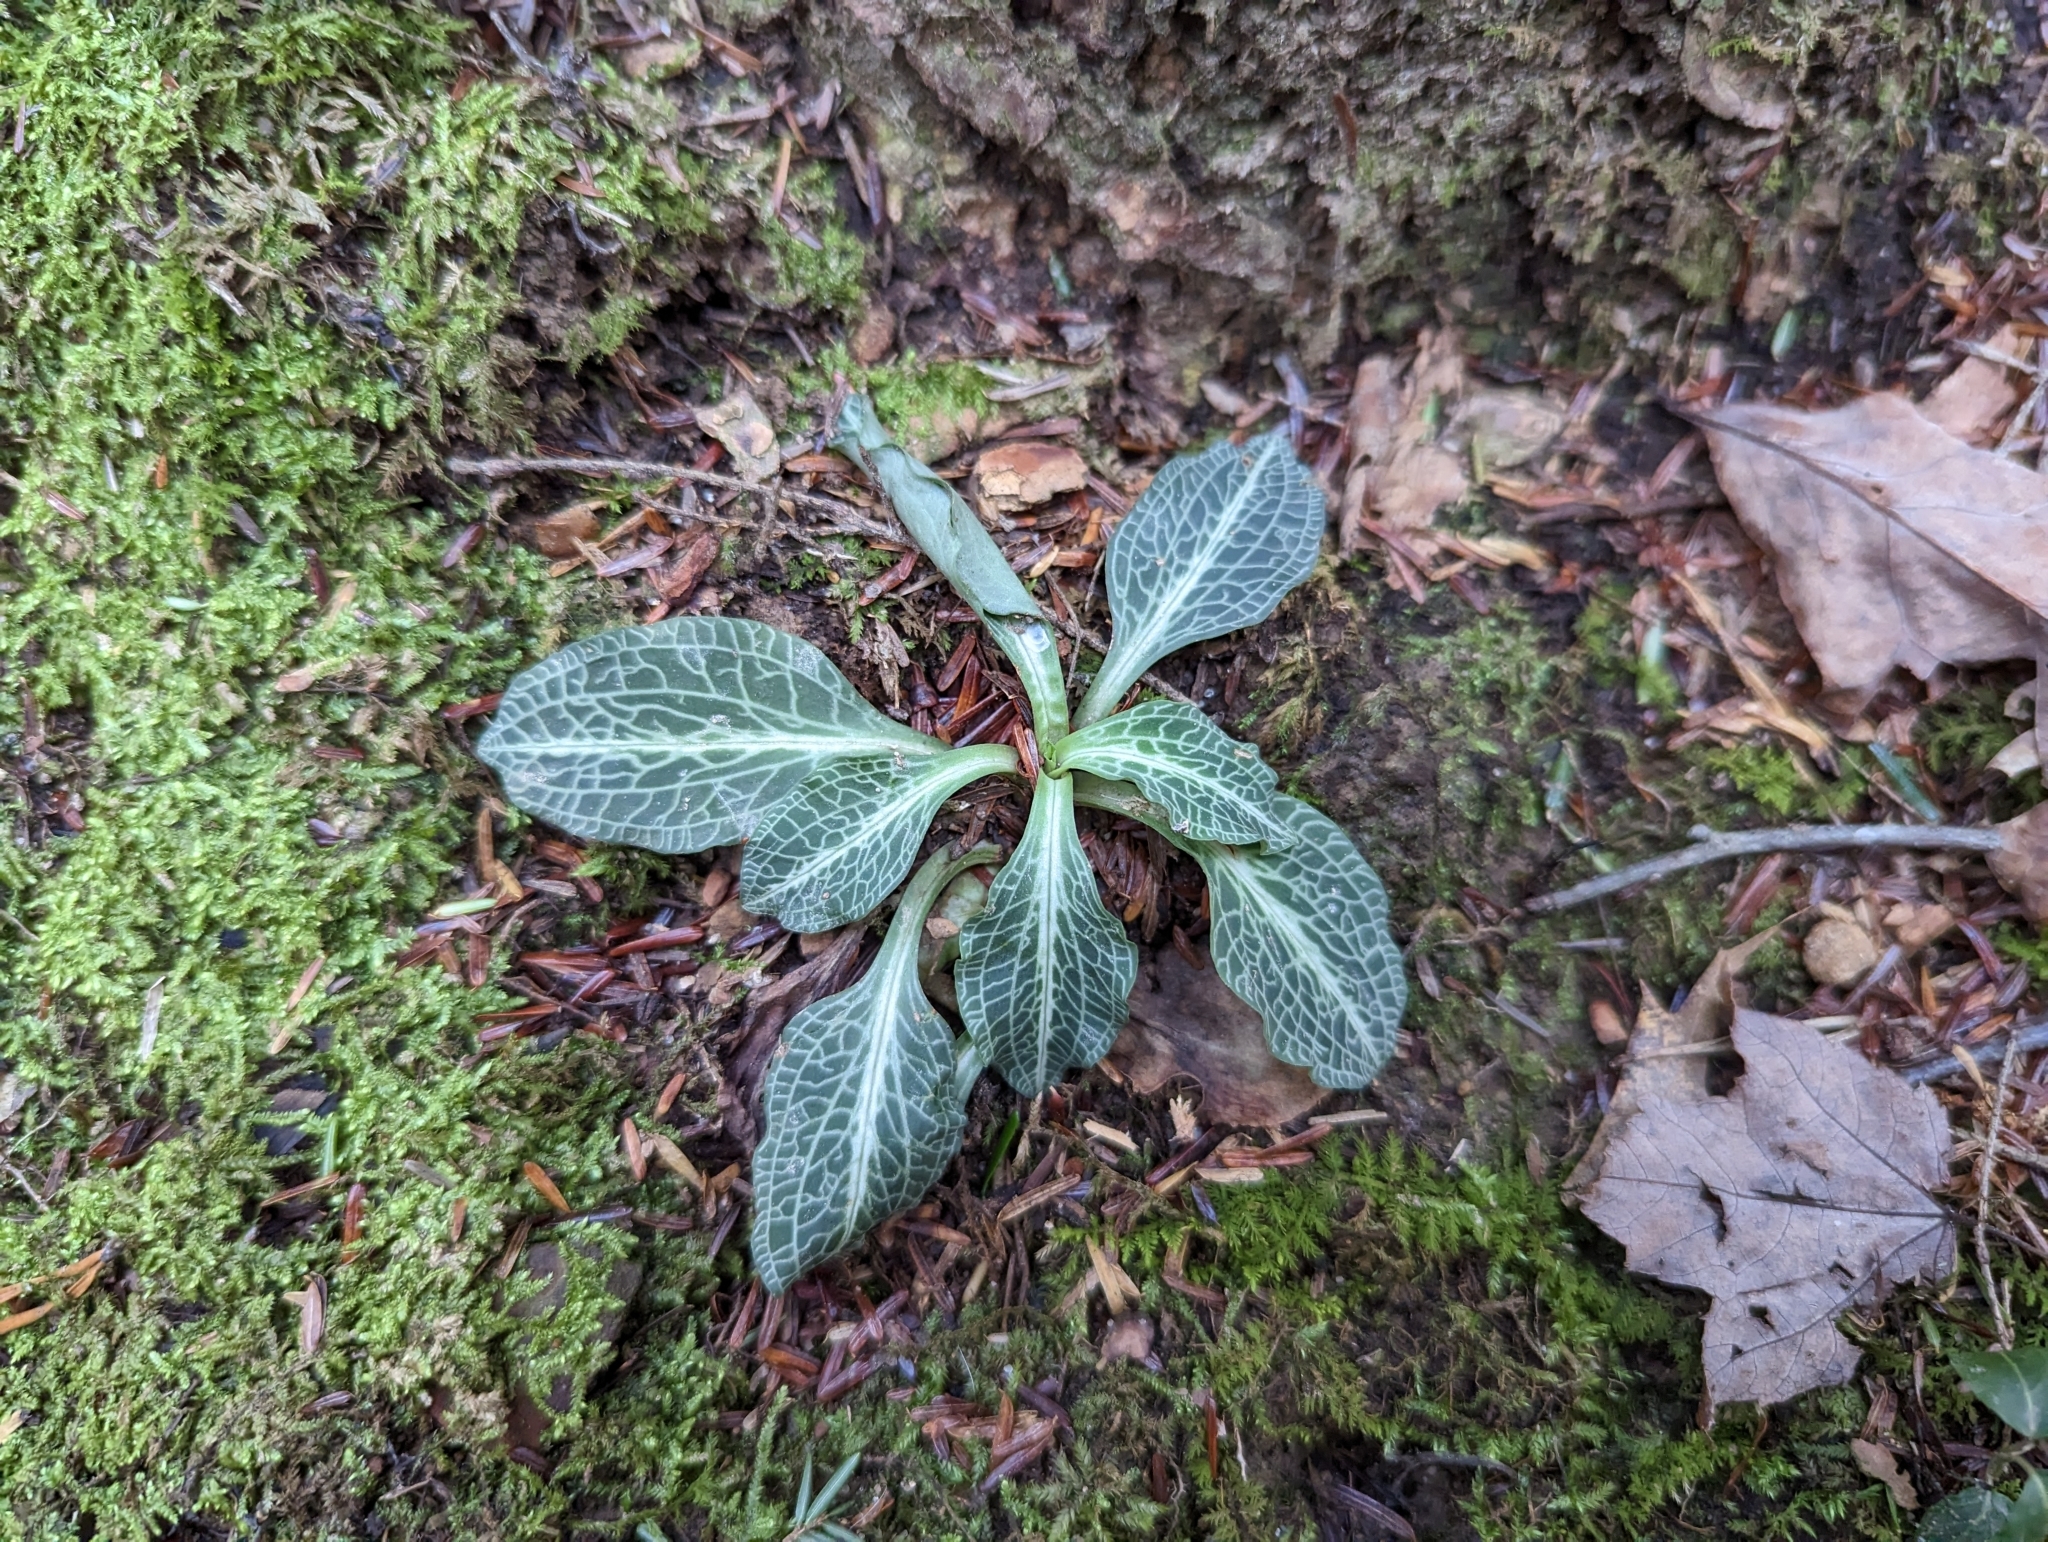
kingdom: Plantae
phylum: Tracheophyta
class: Liliopsida
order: Asparagales
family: Orchidaceae
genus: Goodyera
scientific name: Goodyera pubescens
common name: Downy rattlesnake-plantain
